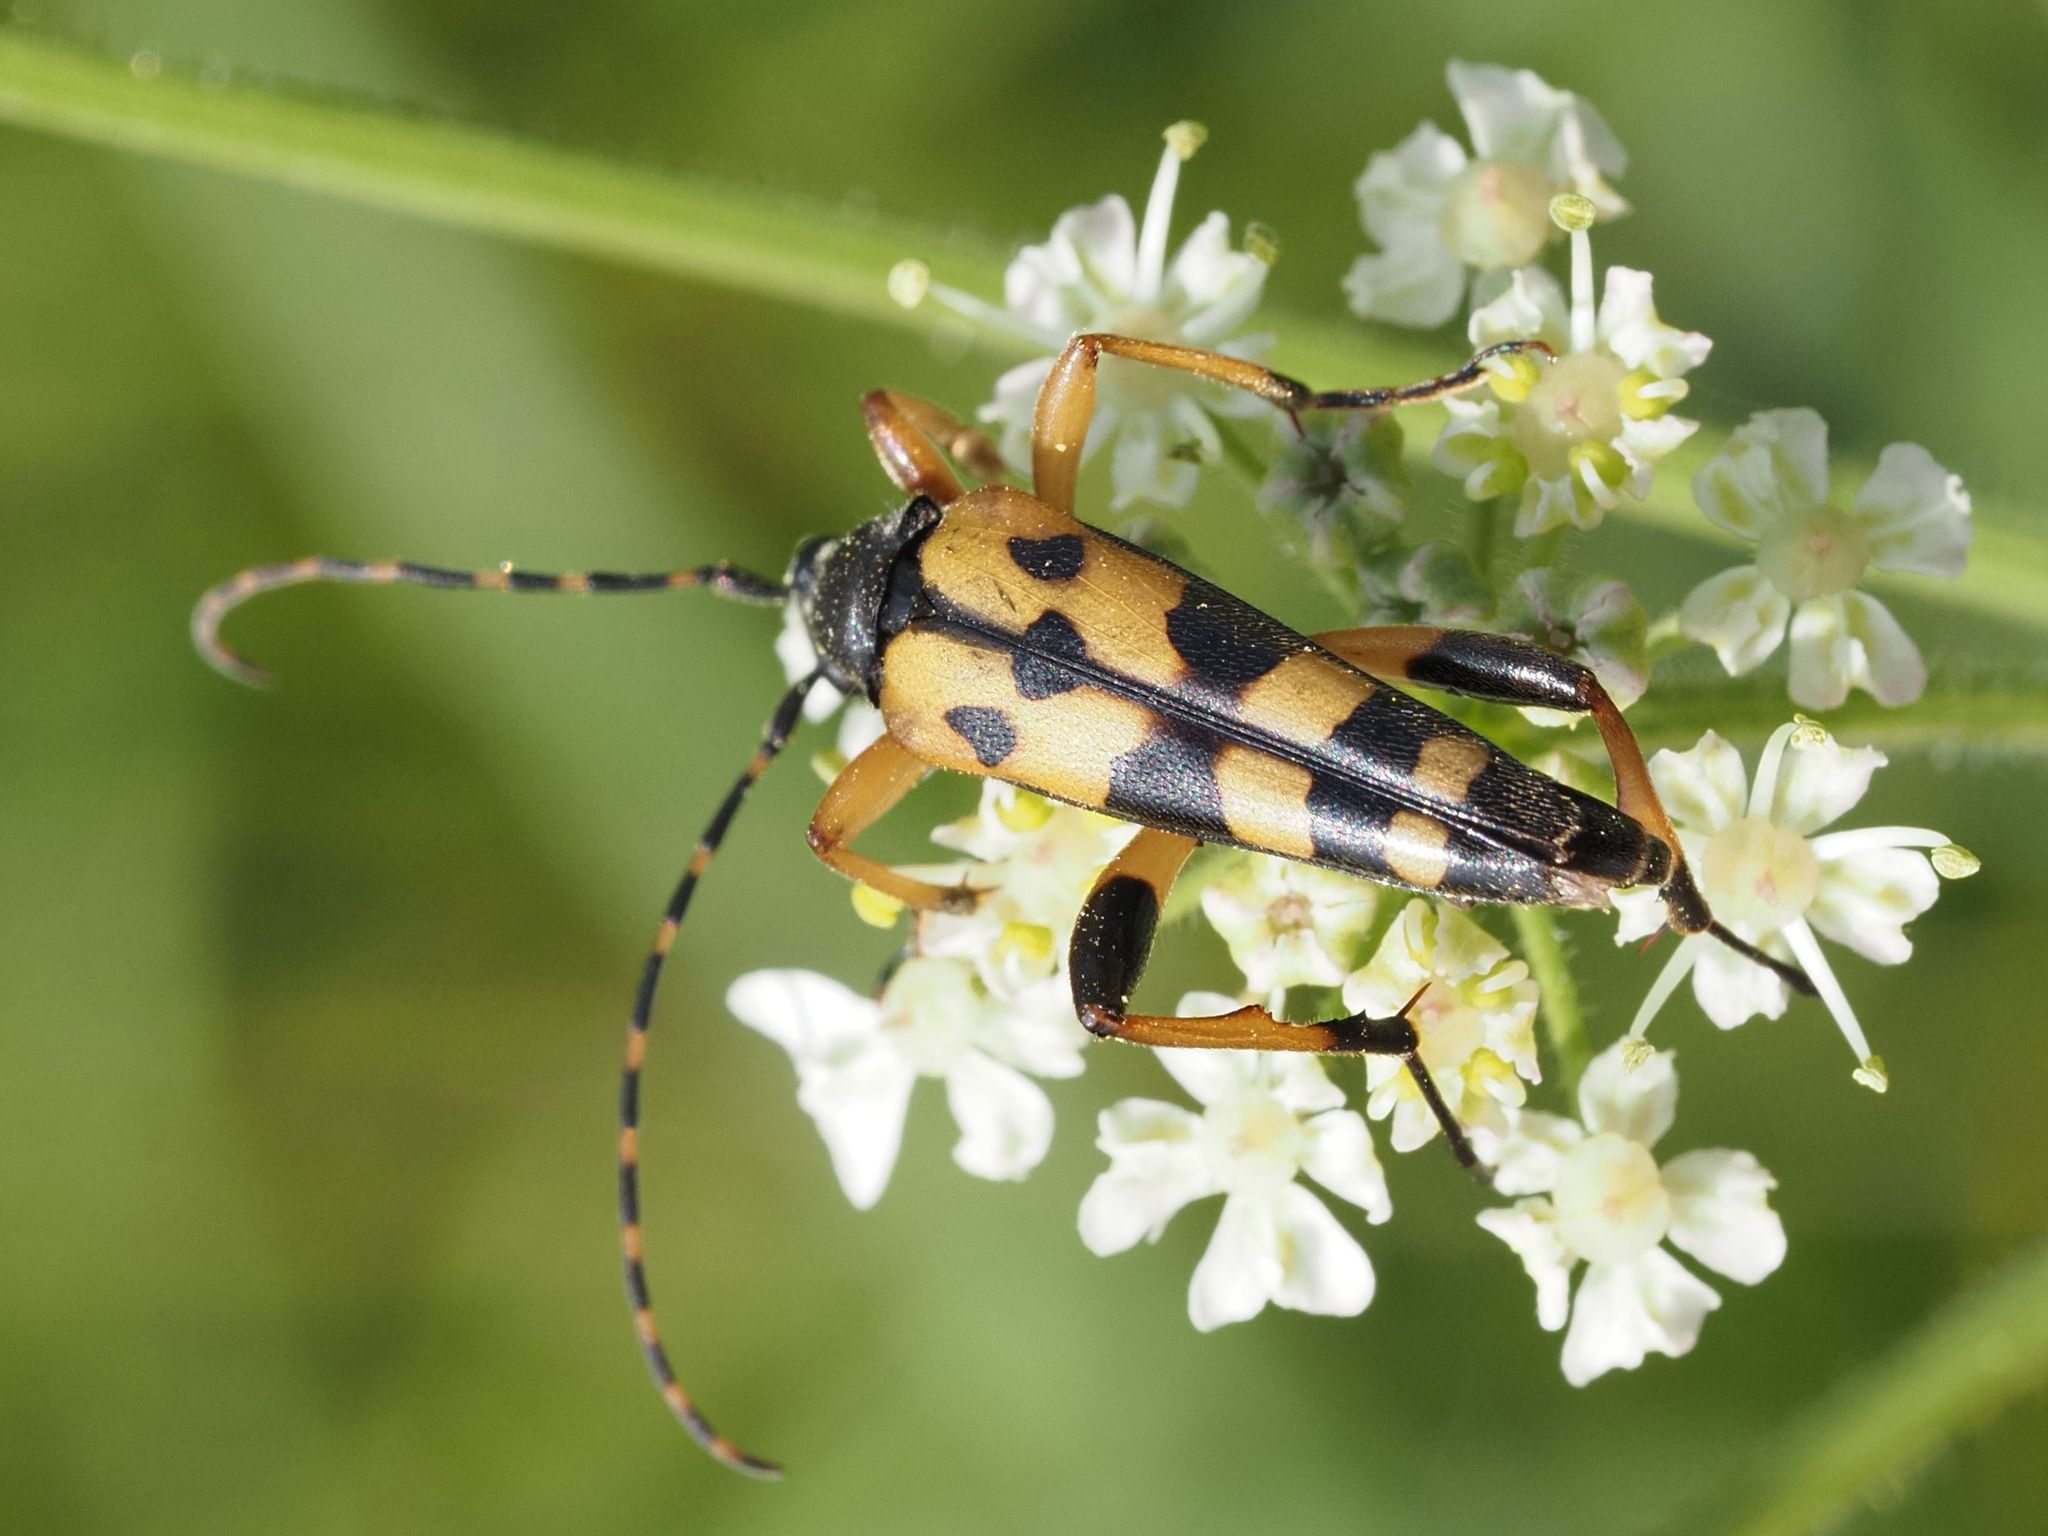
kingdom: Animalia
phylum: Arthropoda
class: Insecta
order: Coleoptera
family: Cerambycidae
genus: Rutpela
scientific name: Rutpela maculata
